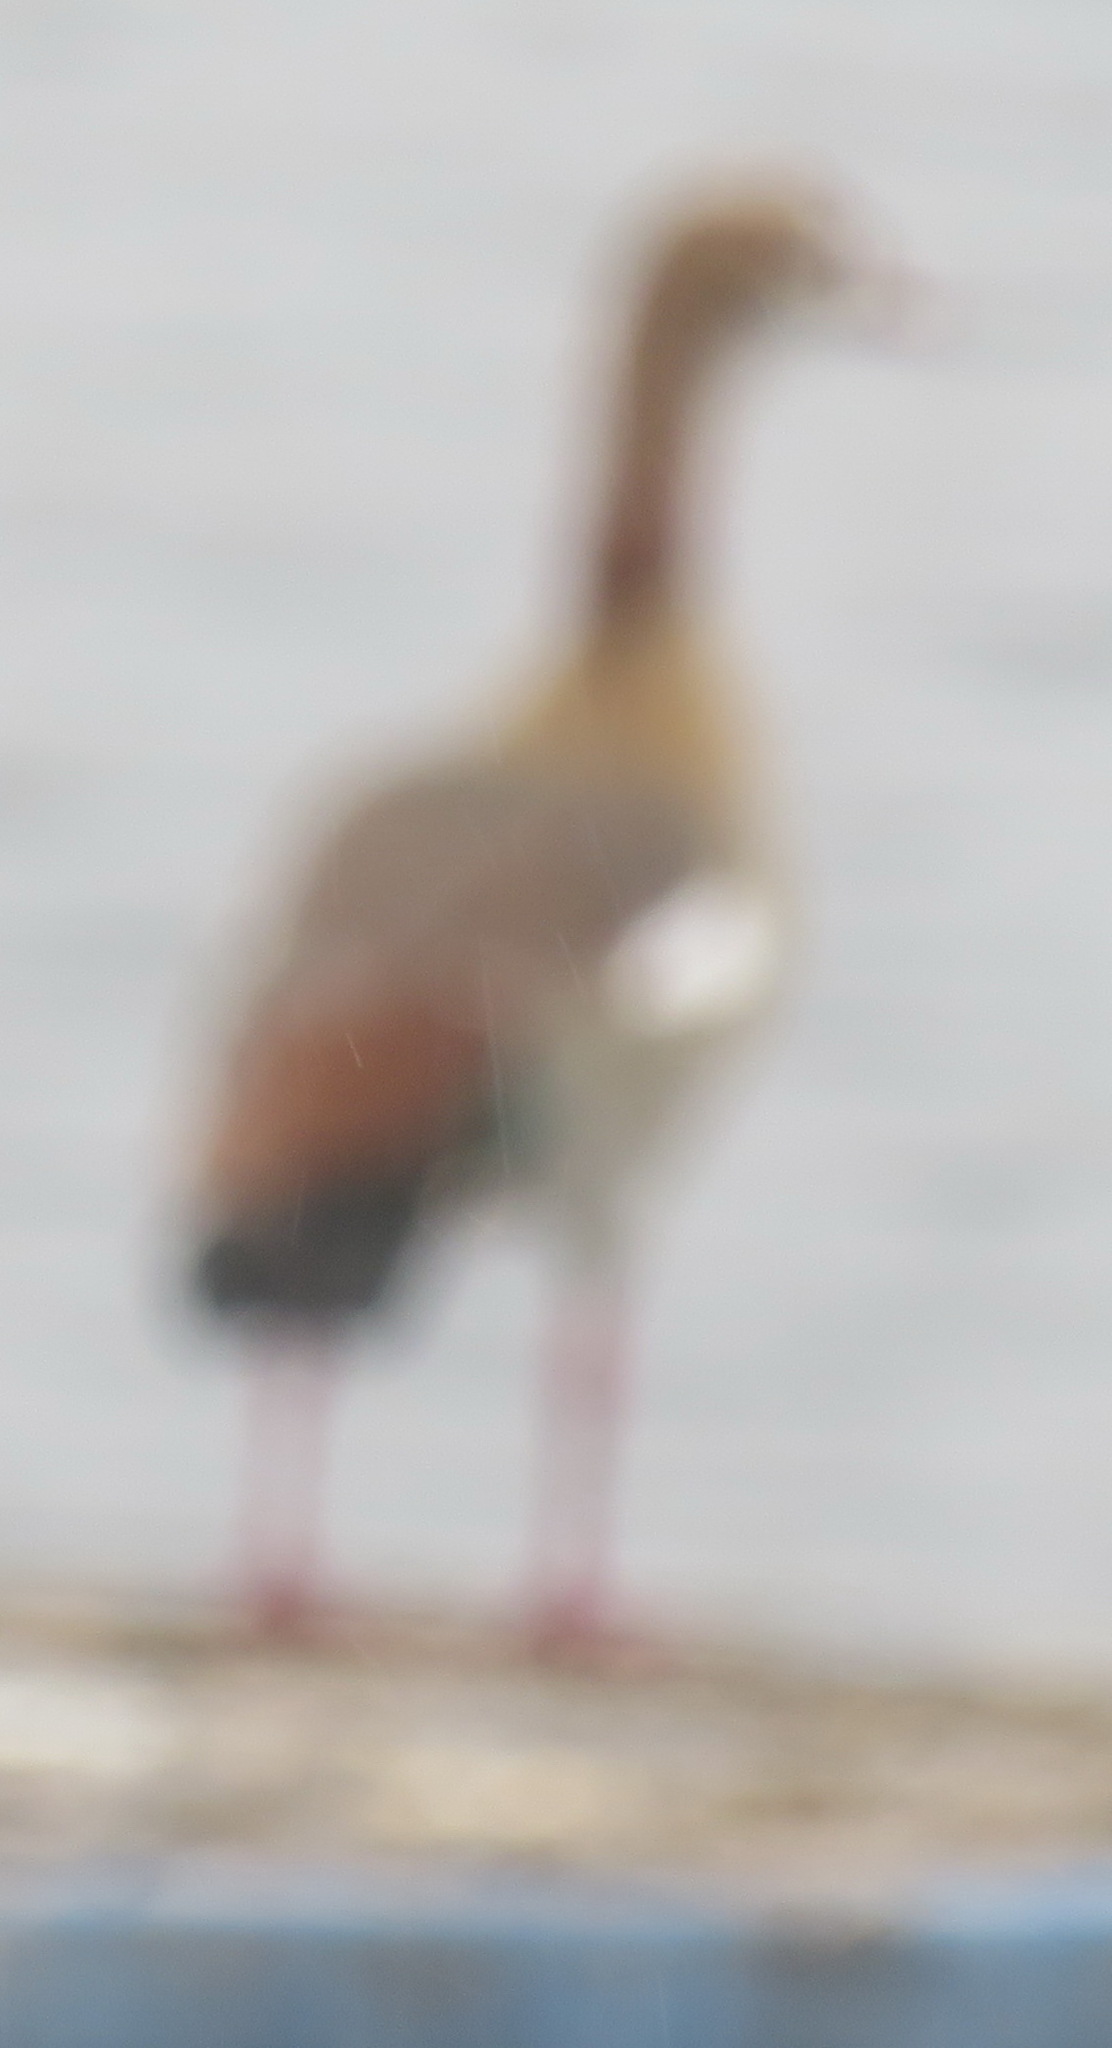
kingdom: Animalia
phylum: Chordata
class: Aves
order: Anseriformes
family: Anatidae
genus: Alopochen
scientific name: Alopochen aegyptiaca
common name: Egyptian goose
